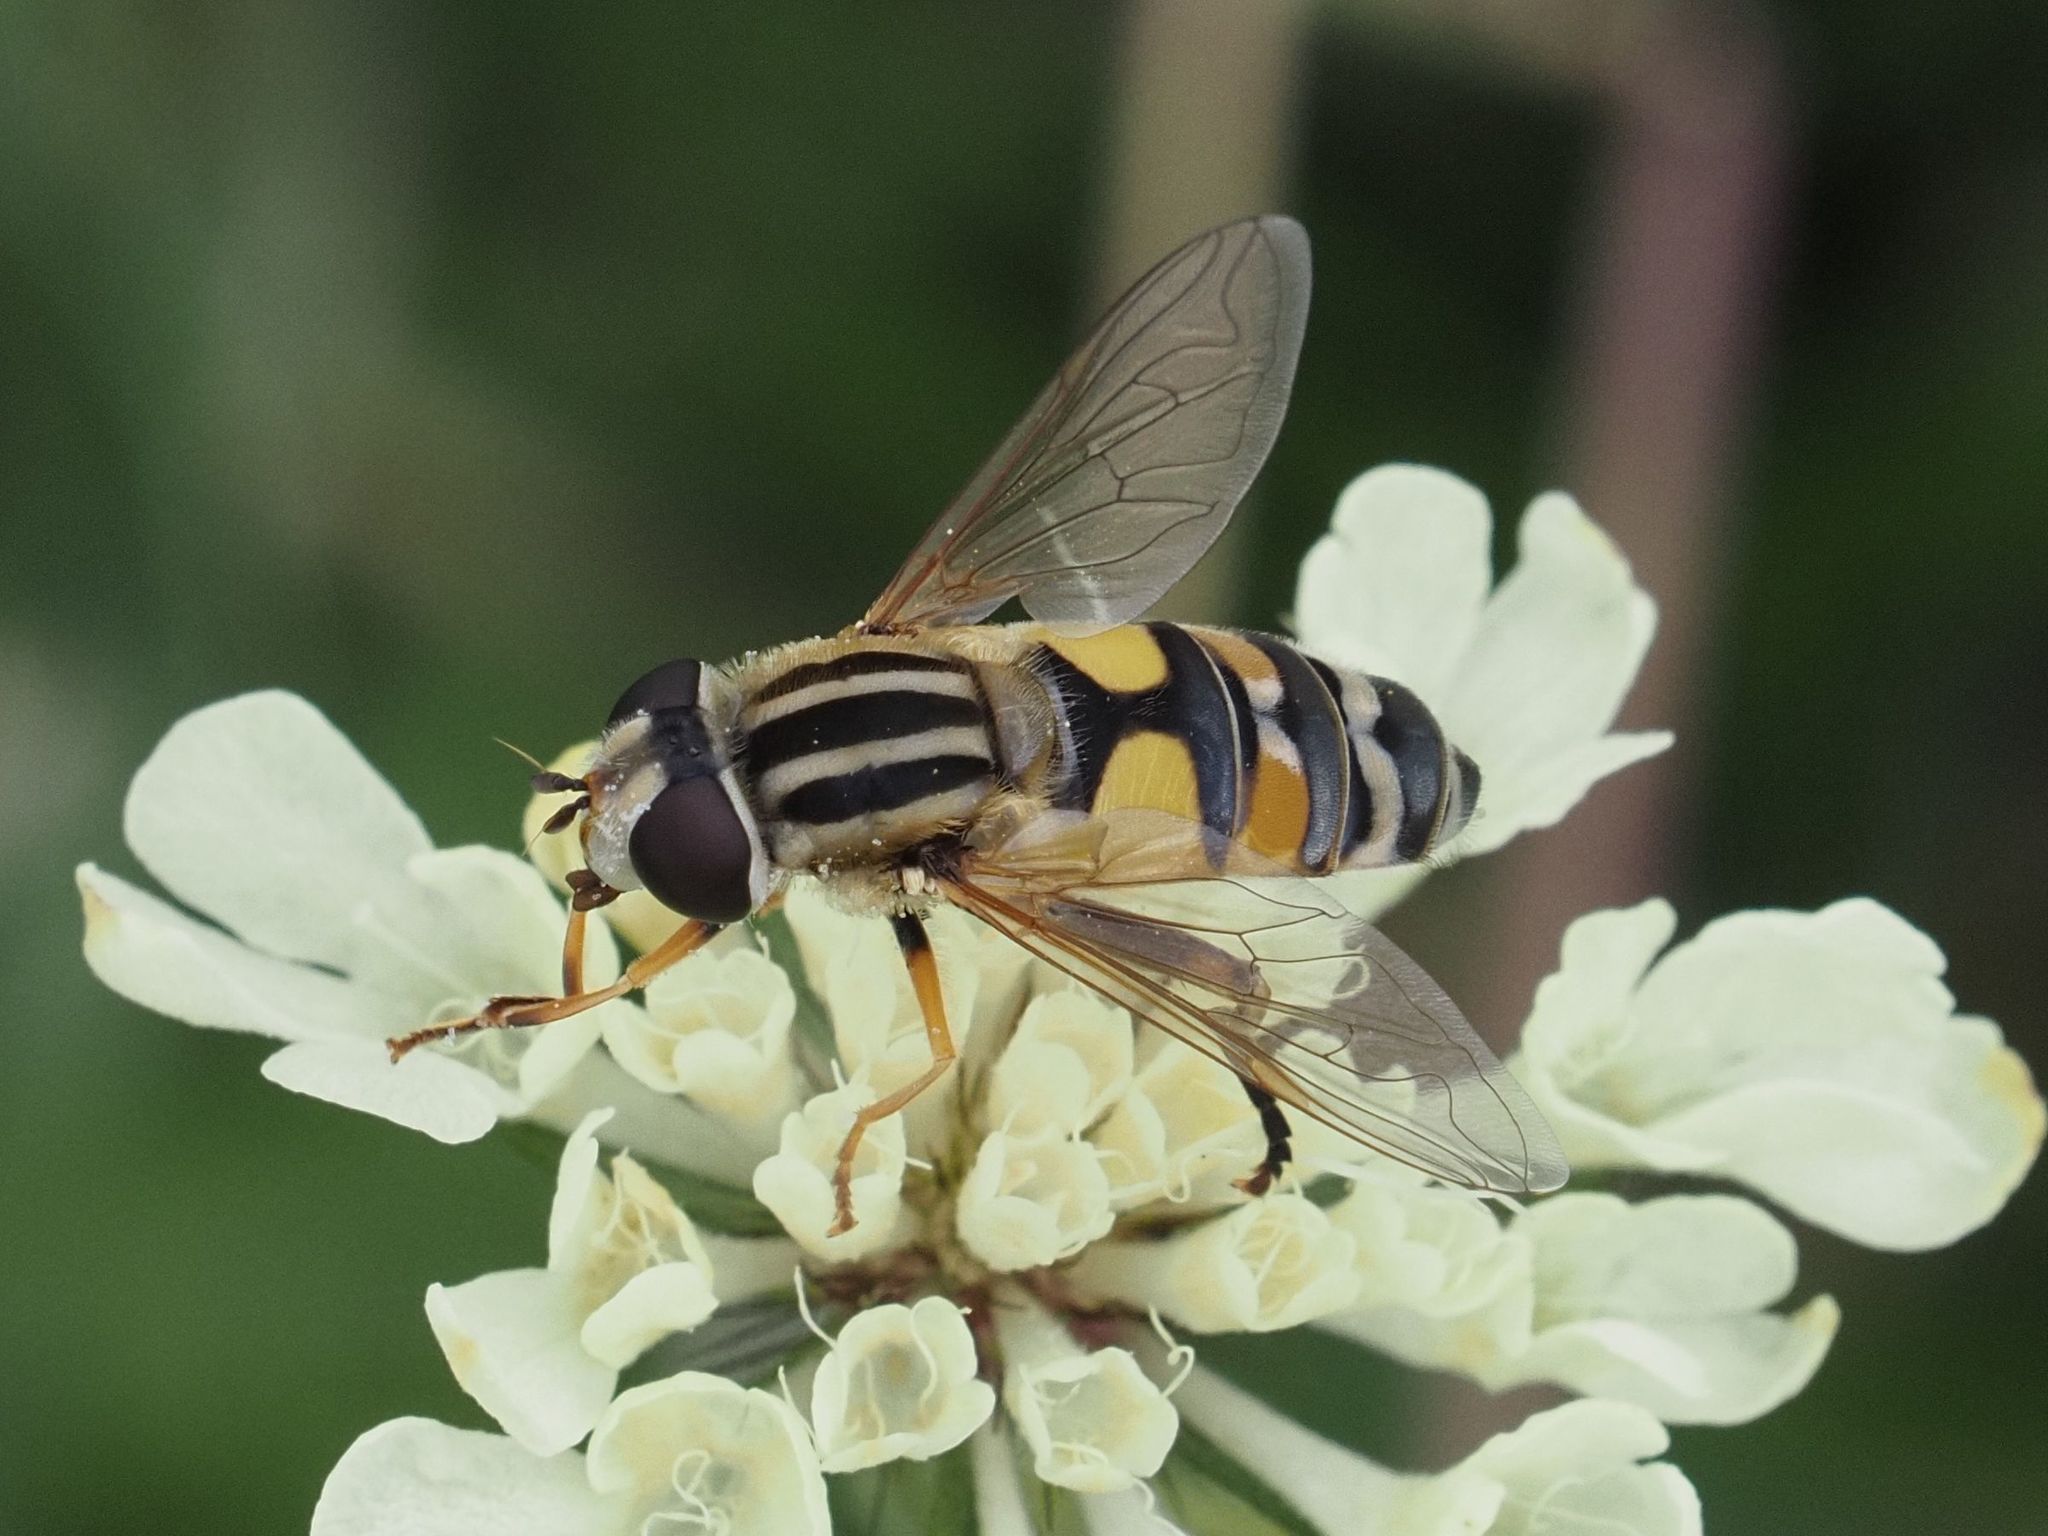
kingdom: Animalia
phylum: Arthropoda
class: Insecta
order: Diptera
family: Syrphidae
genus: Helophilus
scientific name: Helophilus trivittatus
